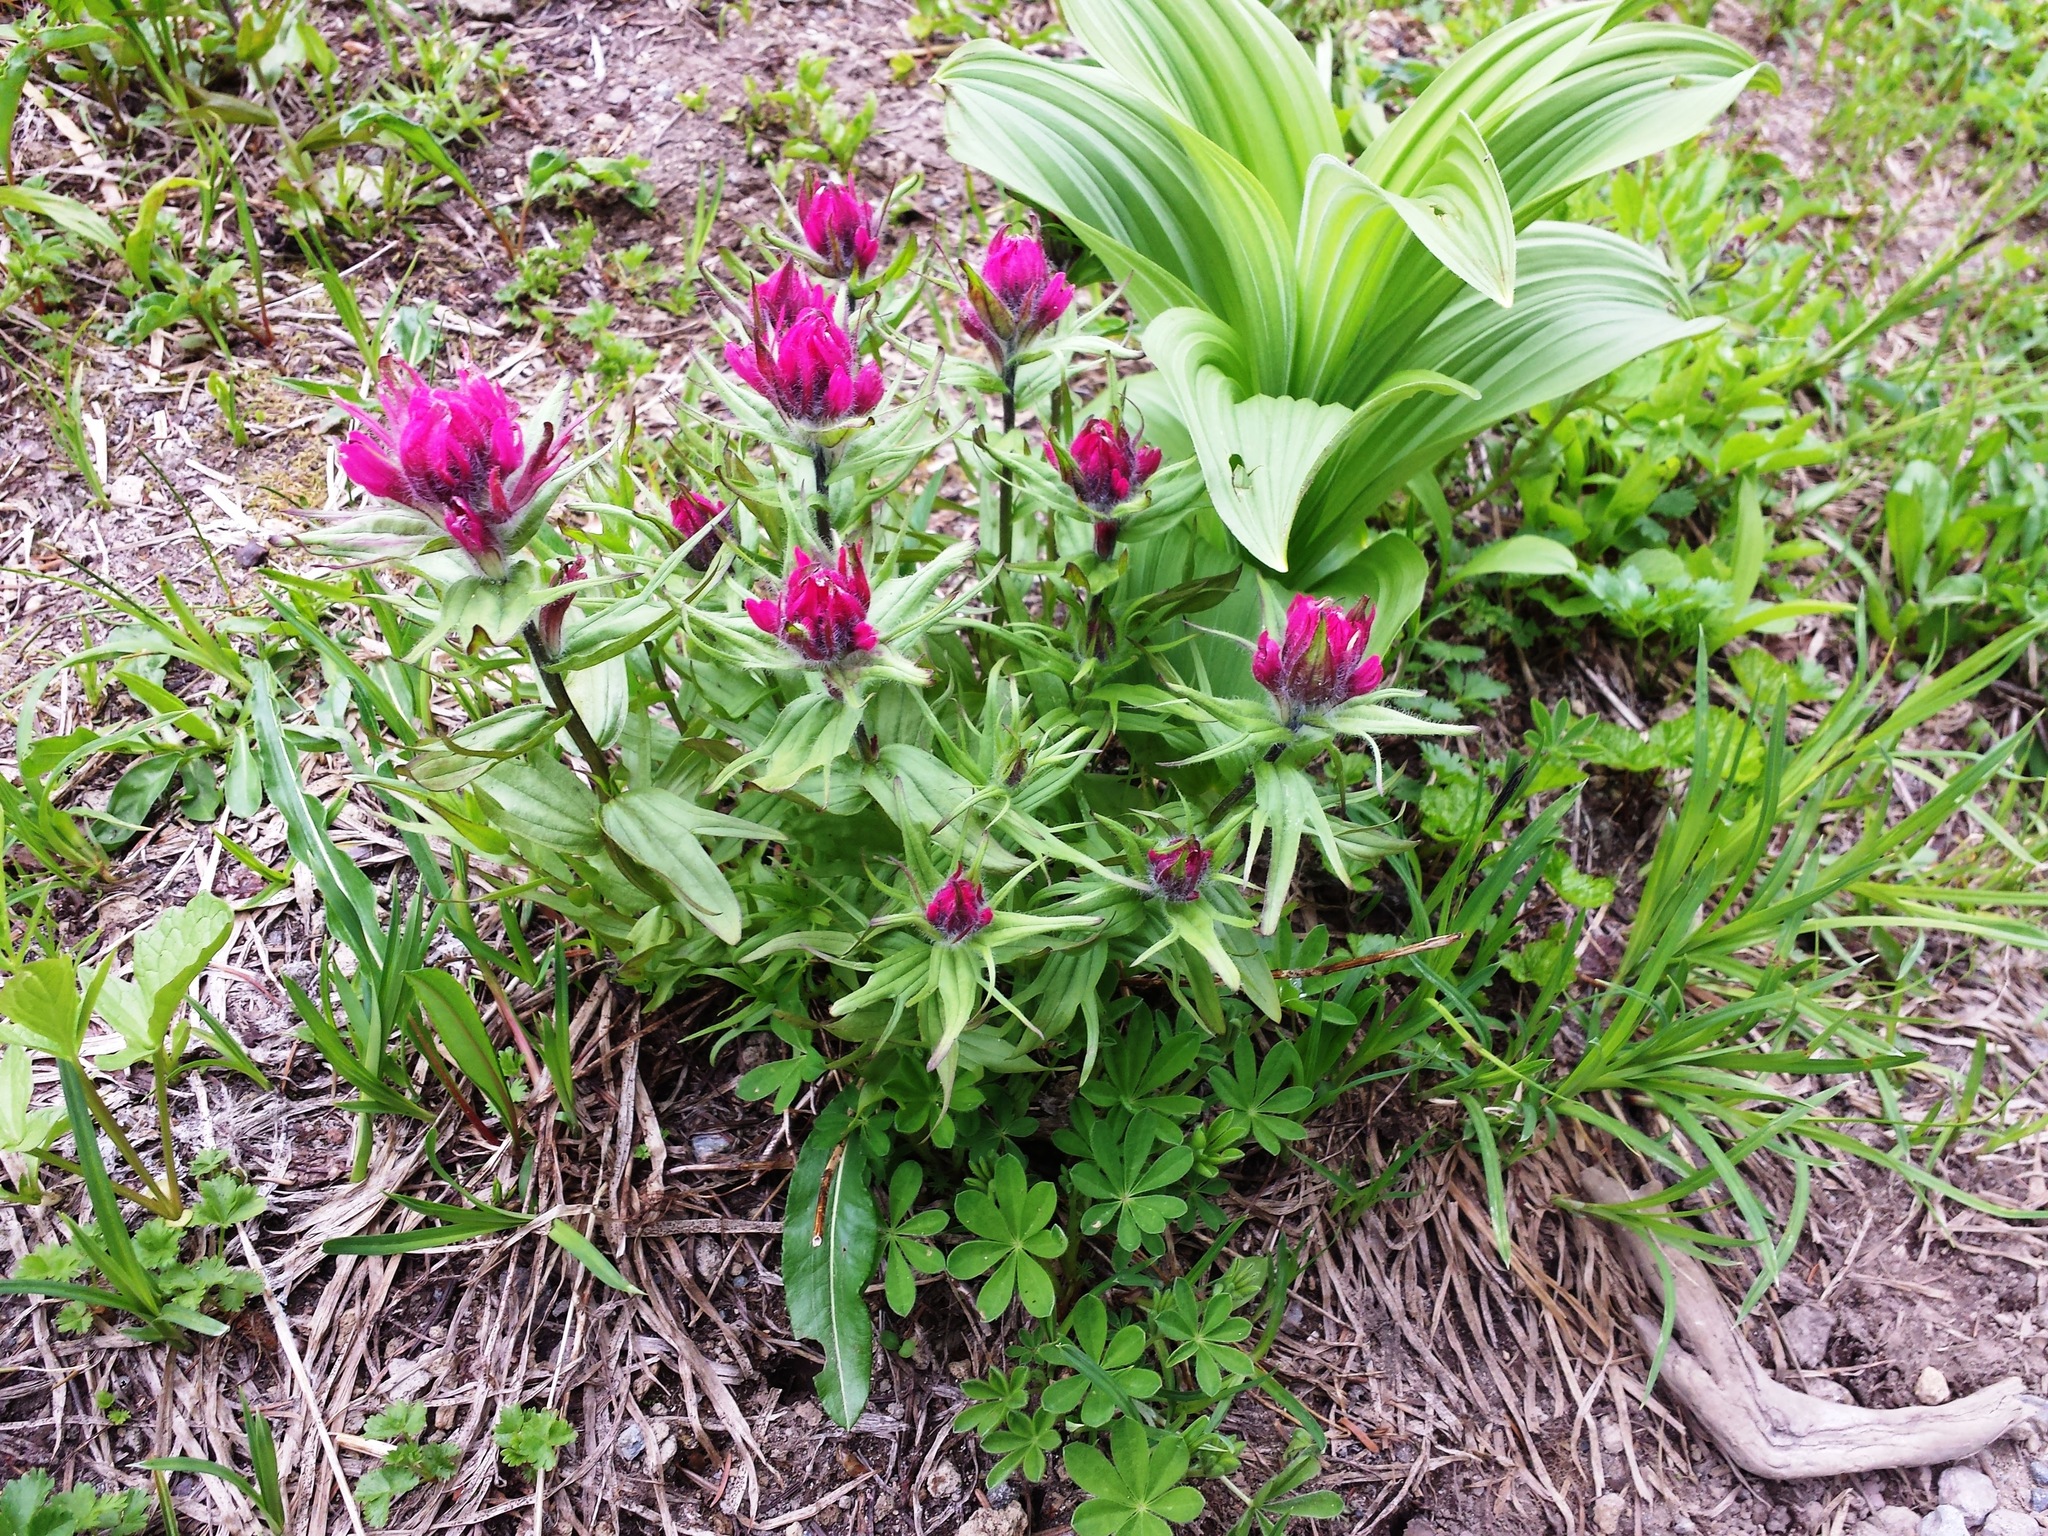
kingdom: Plantae
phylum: Tracheophyta
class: Magnoliopsida
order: Lamiales
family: Orobanchaceae
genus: Castilleja
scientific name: Castilleja parviflora
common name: Mountain paintbrush
